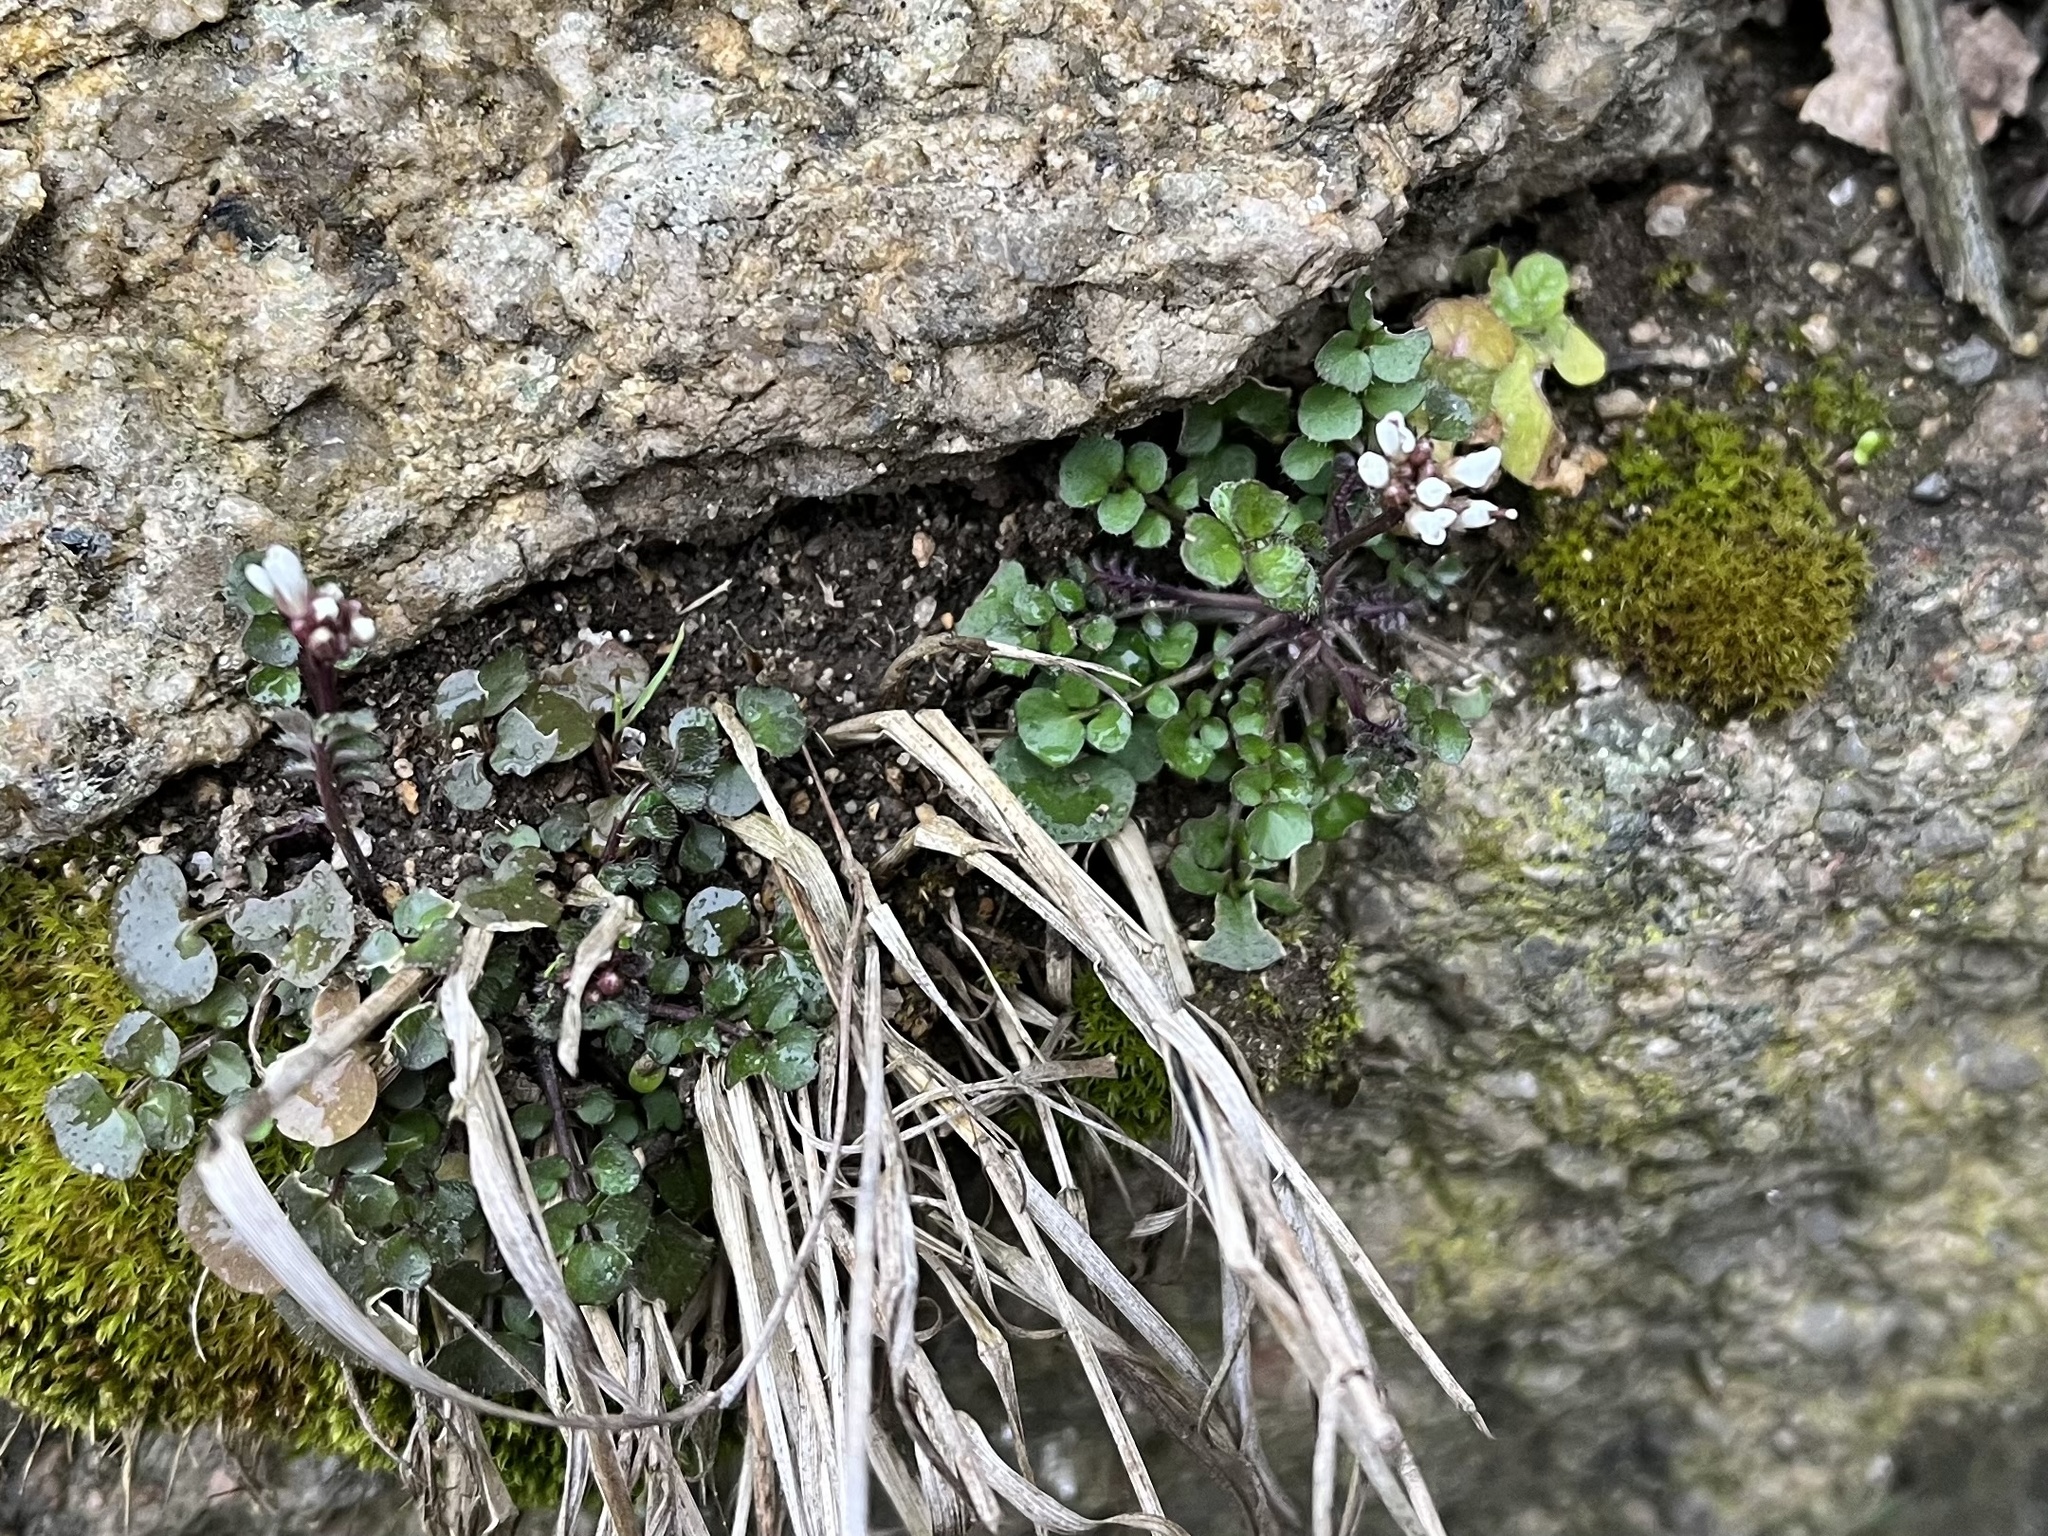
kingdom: Plantae
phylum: Tracheophyta
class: Magnoliopsida
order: Brassicales
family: Brassicaceae
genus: Cardamine
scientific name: Cardamine hirsuta
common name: Hairy bittercress
